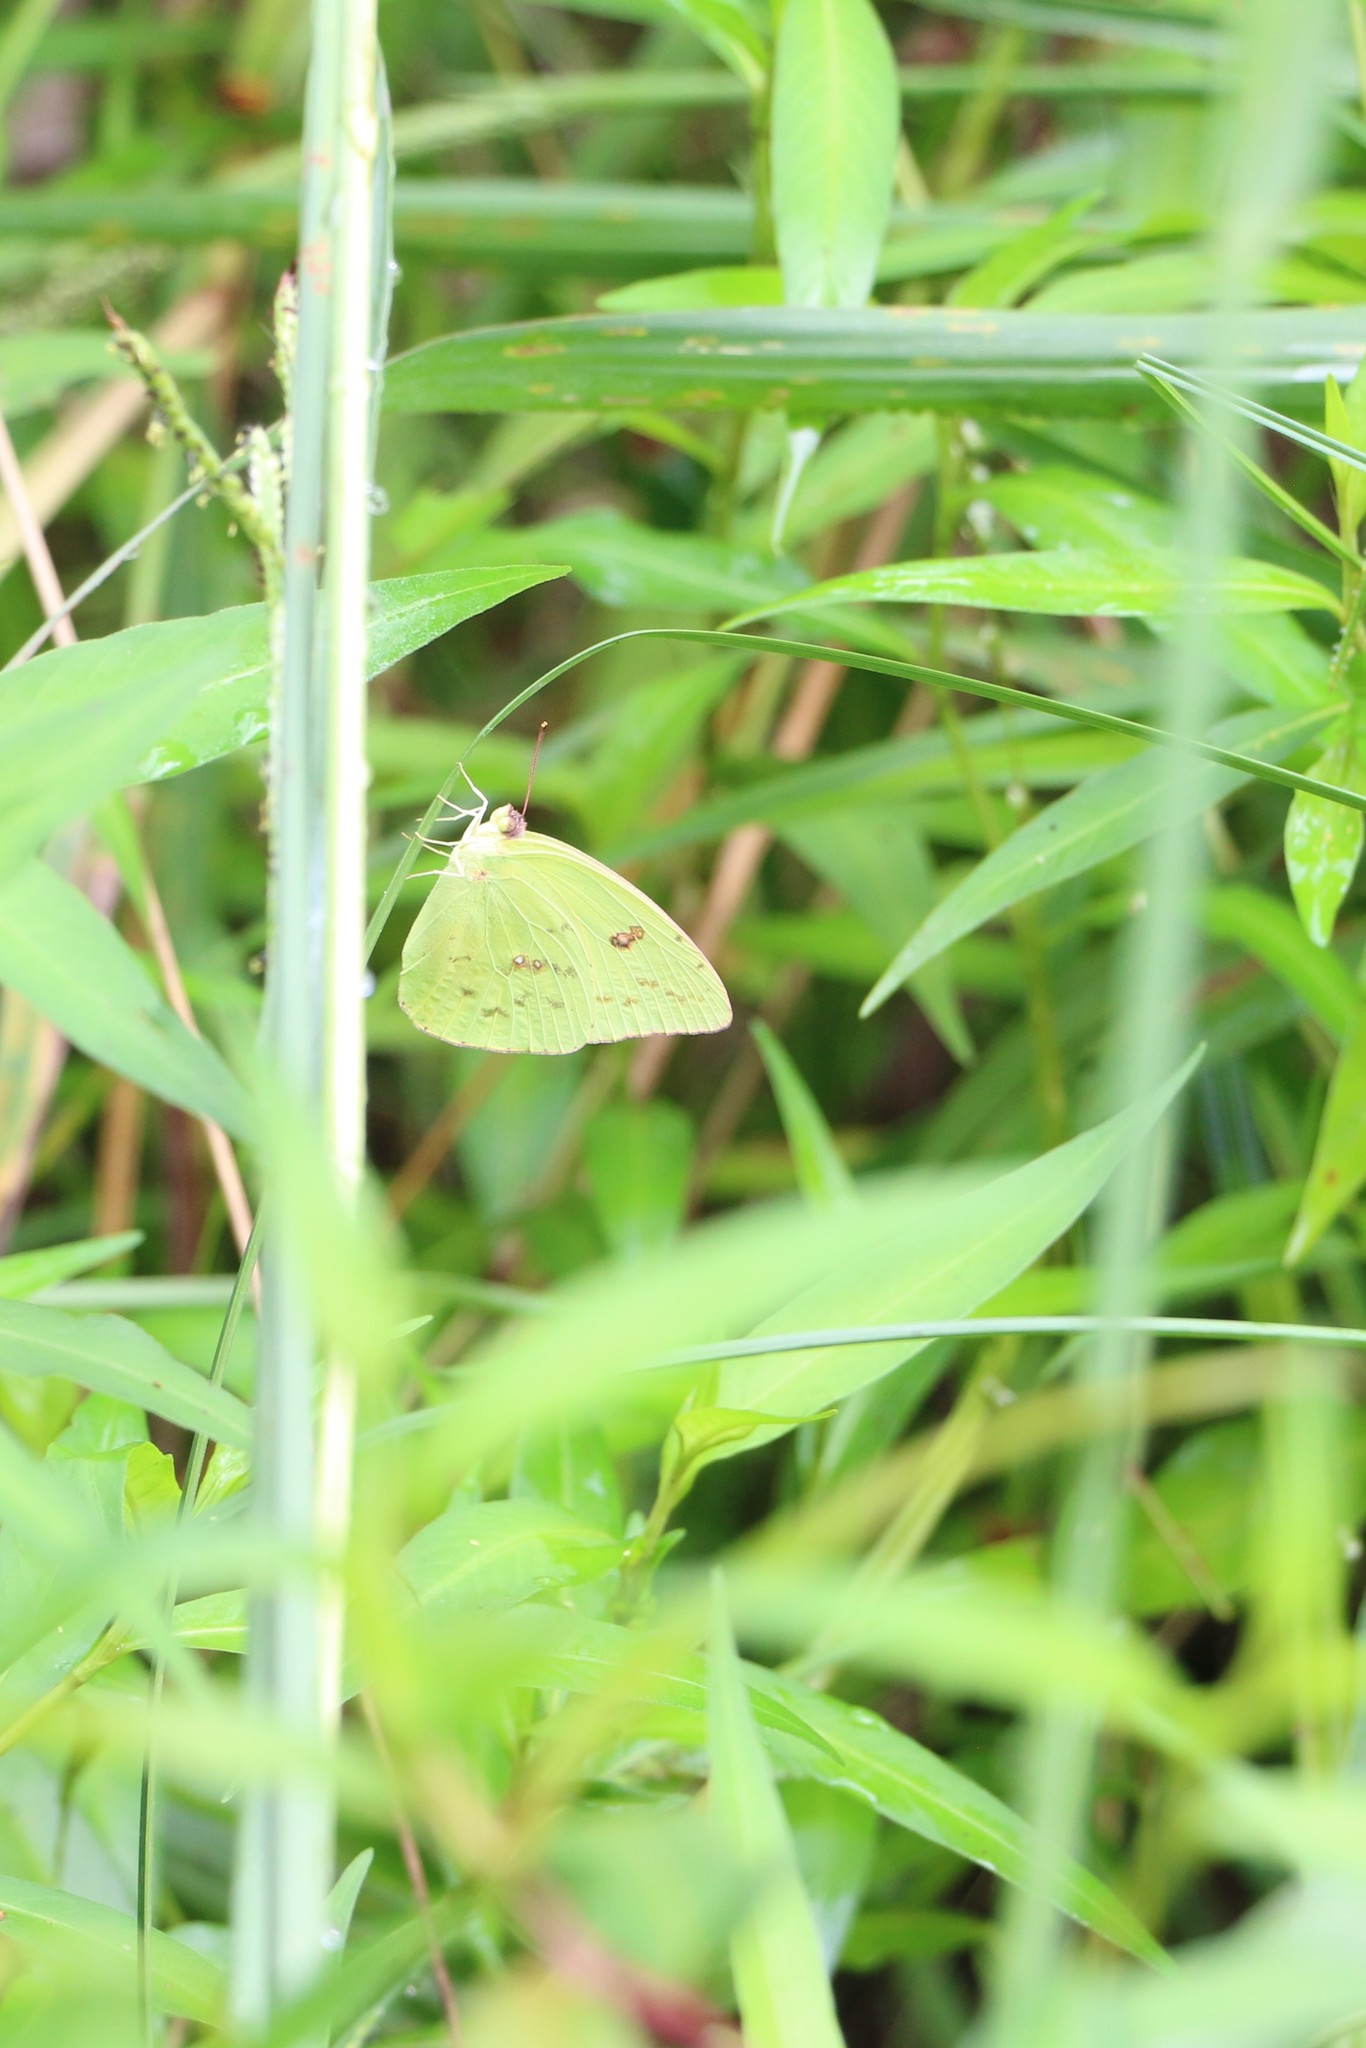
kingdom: Animalia
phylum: Arthropoda
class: Insecta
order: Lepidoptera
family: Pieridae
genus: Phoebis
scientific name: Phoebis sennae
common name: Cloudless sulphur
